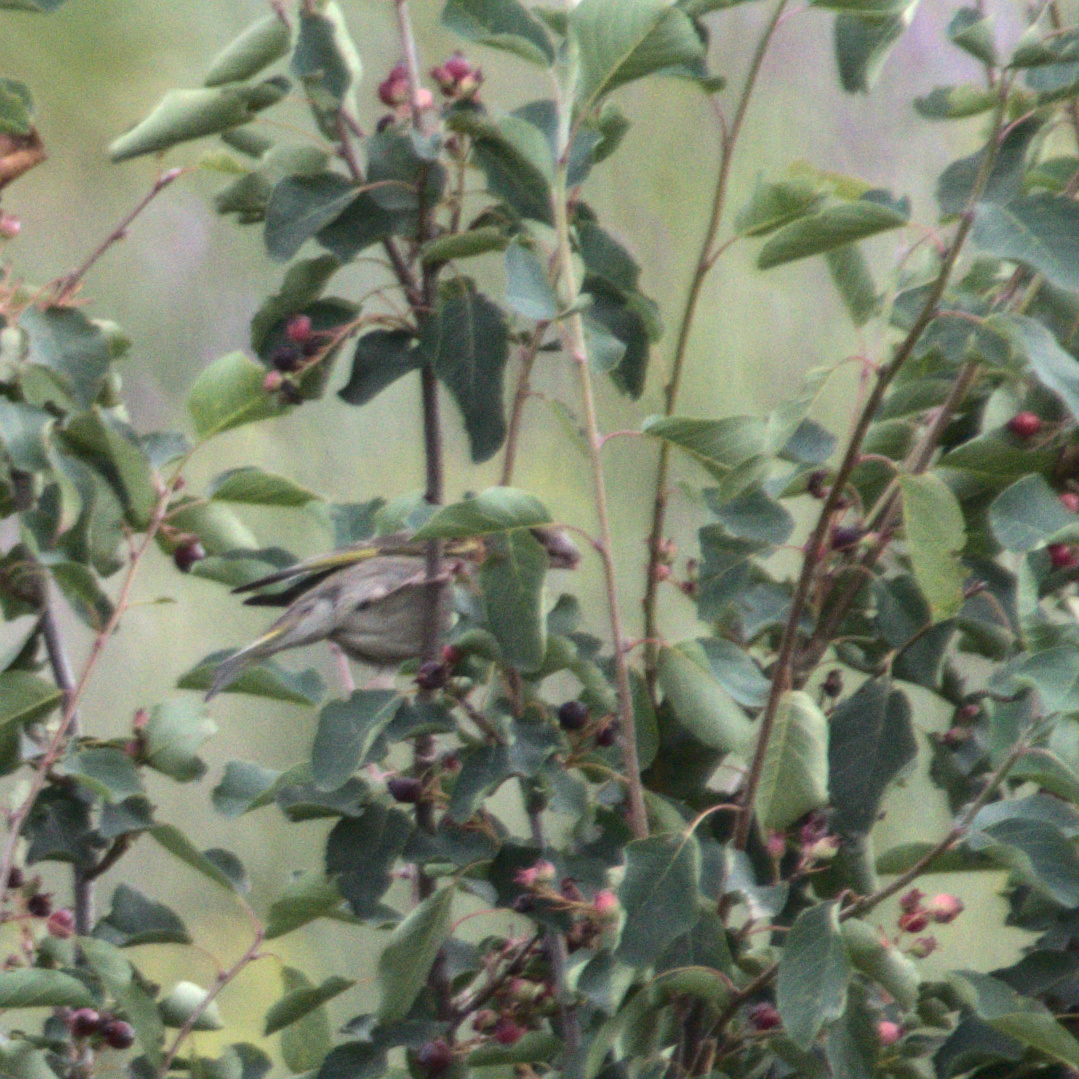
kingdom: Plantae
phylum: Tracheophyta
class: Liliopsida
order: Poales
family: Poaceae
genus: Chloris
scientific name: Chloris chloris
